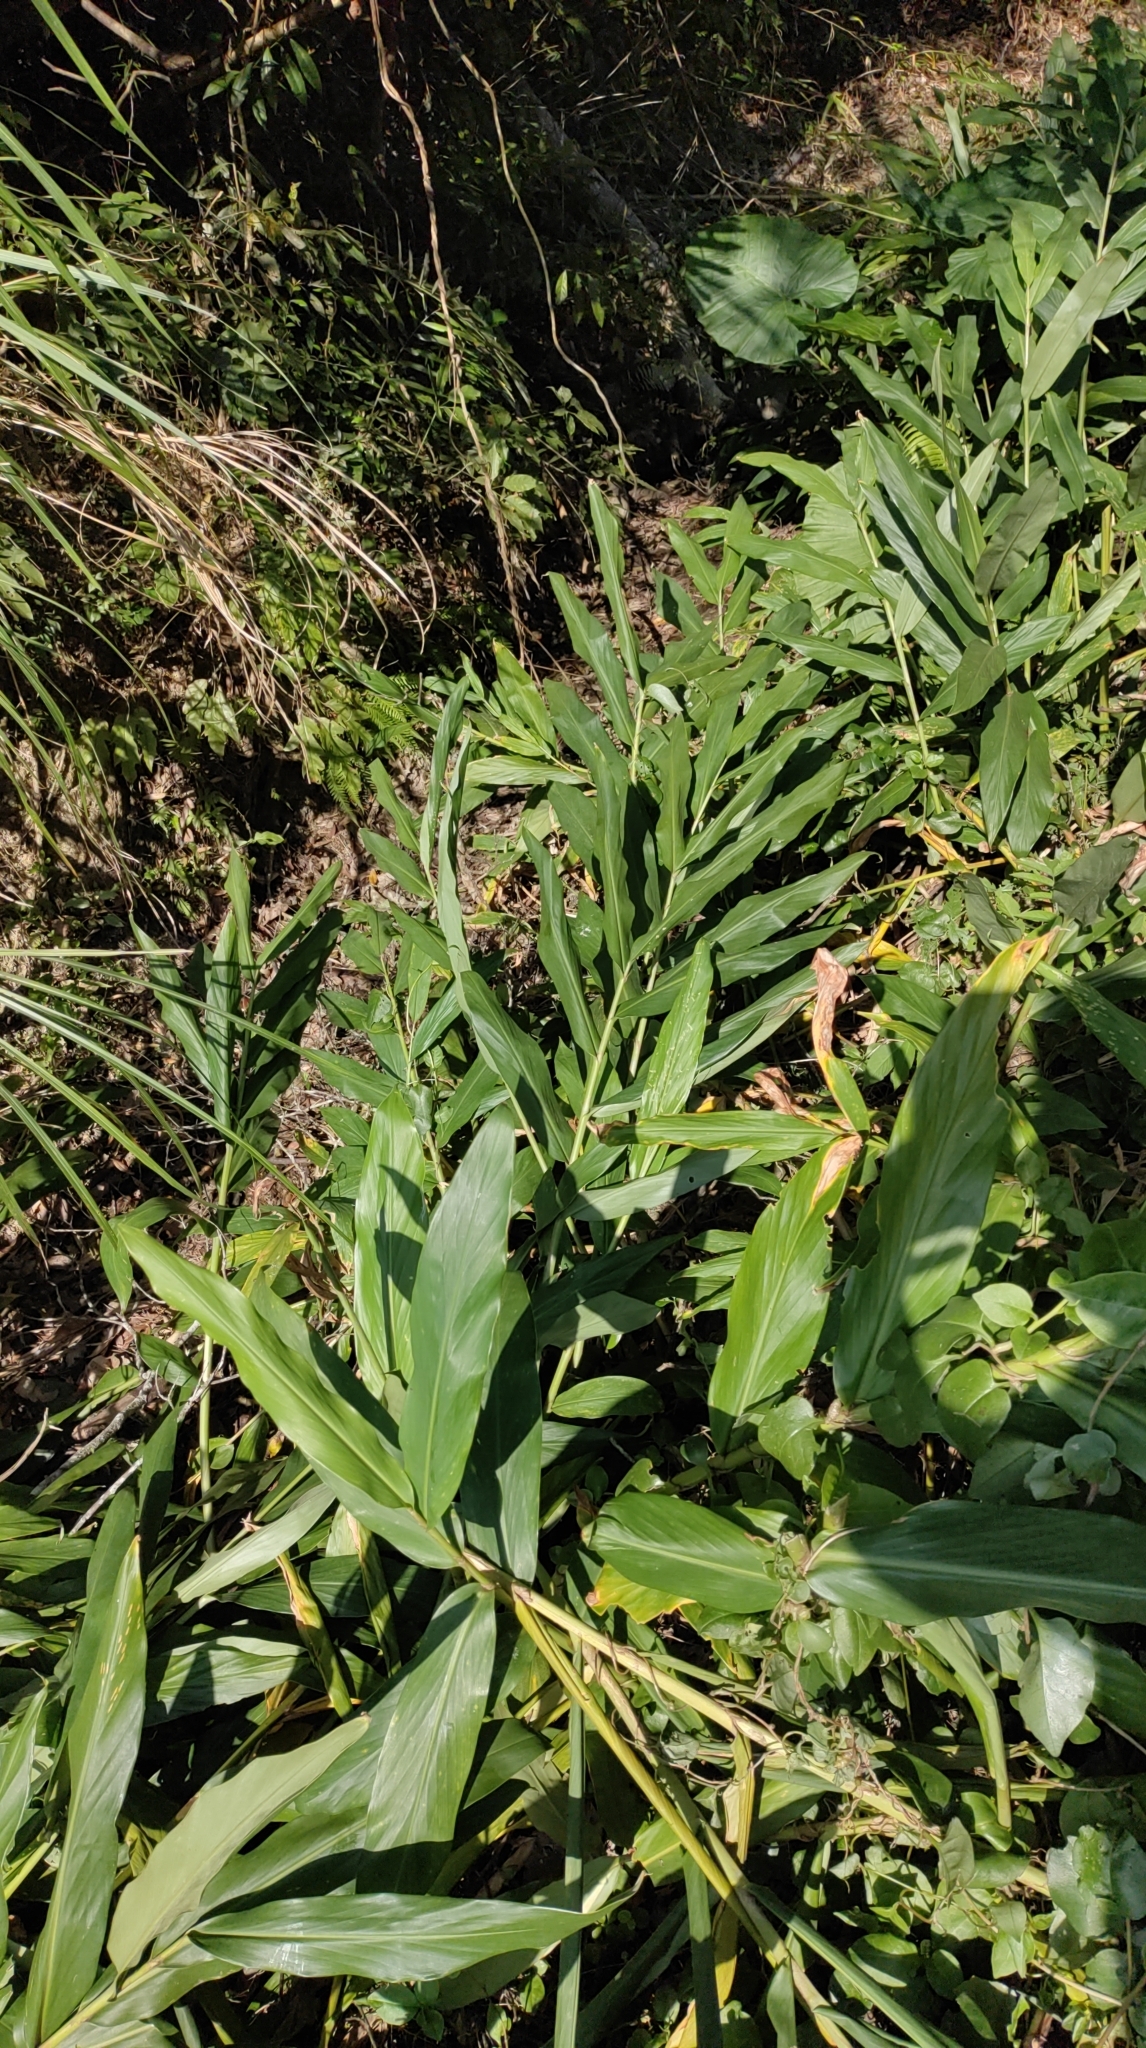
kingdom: Plantae
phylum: Tracheophyta
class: Liliopsida
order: Zingiberales
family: Zingiberaceae
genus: Hedychium
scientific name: Hedychium coronarium
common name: White garland-lily
